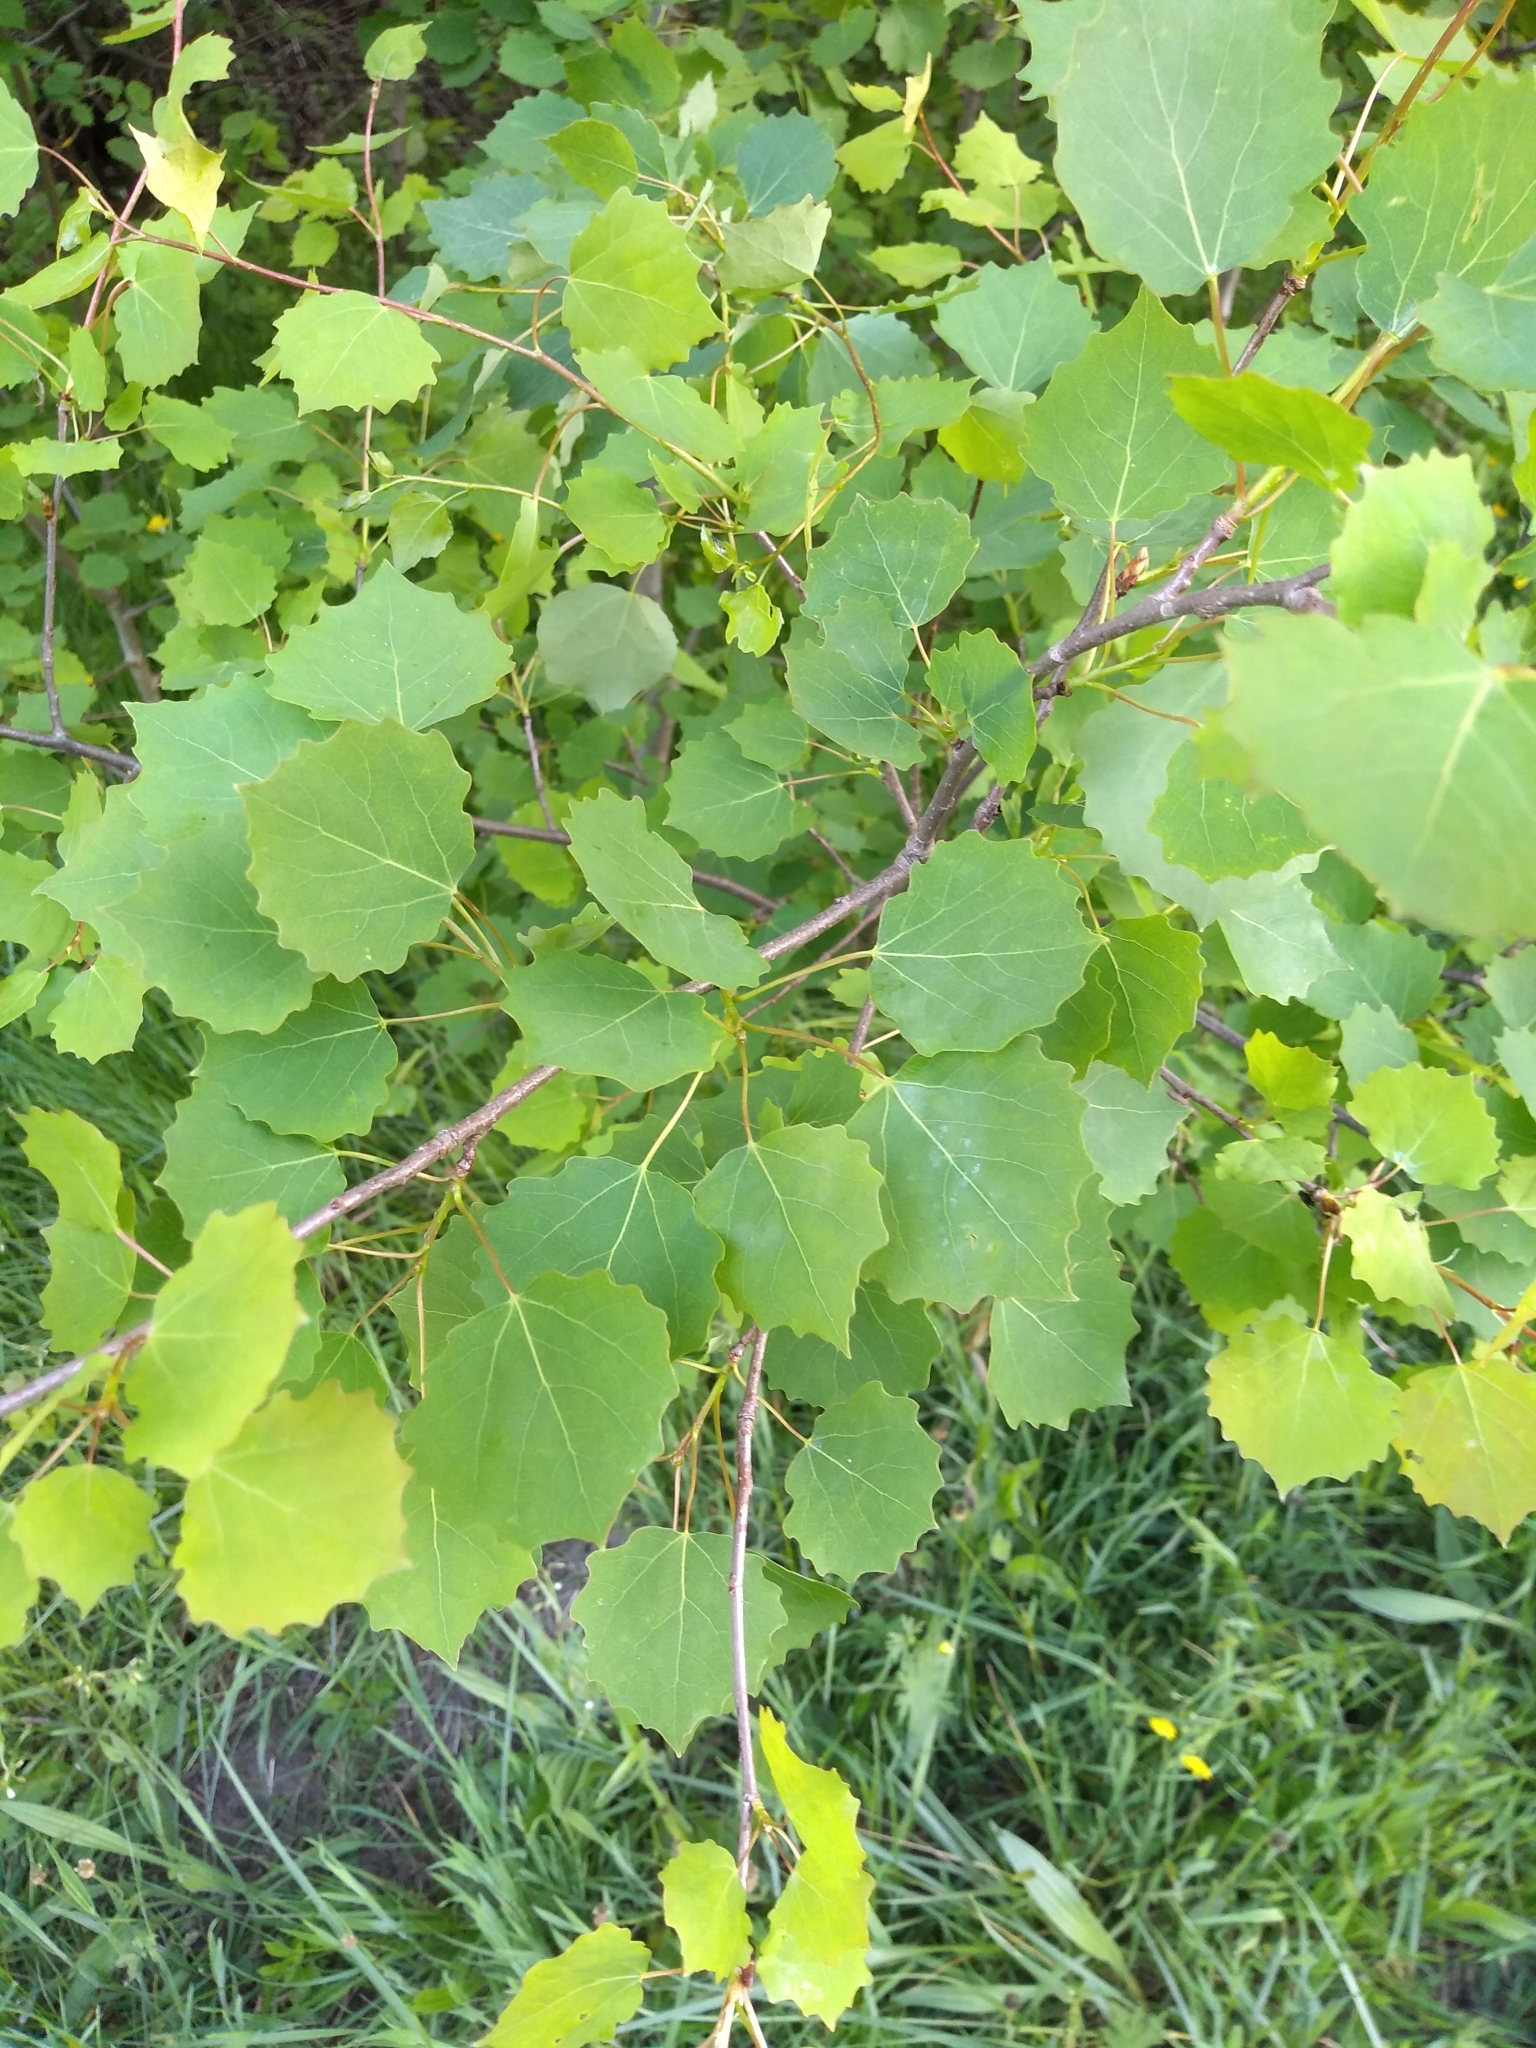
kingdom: Plantae
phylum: Tracheophyta
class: Magnoliopsida
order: Malpighiales
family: Salicaceae
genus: Populus
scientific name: Populus tremula
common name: European aspen
